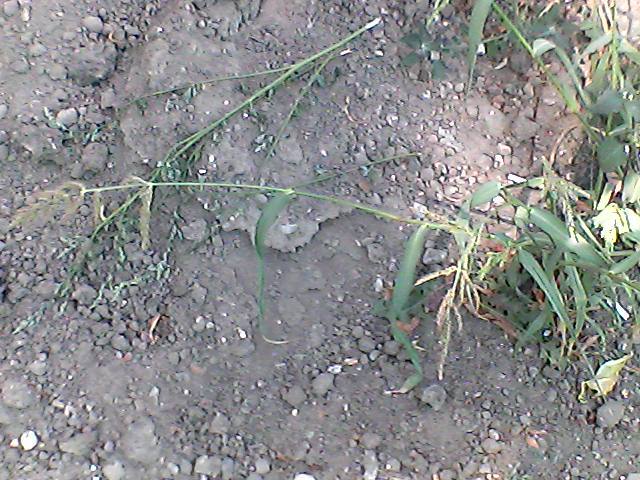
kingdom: Plantae
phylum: Tracheophyta
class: Liliopsida
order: Poales
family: Poaceae
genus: Echinochloa
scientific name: Echinochloa crus-galli
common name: Cockspur
